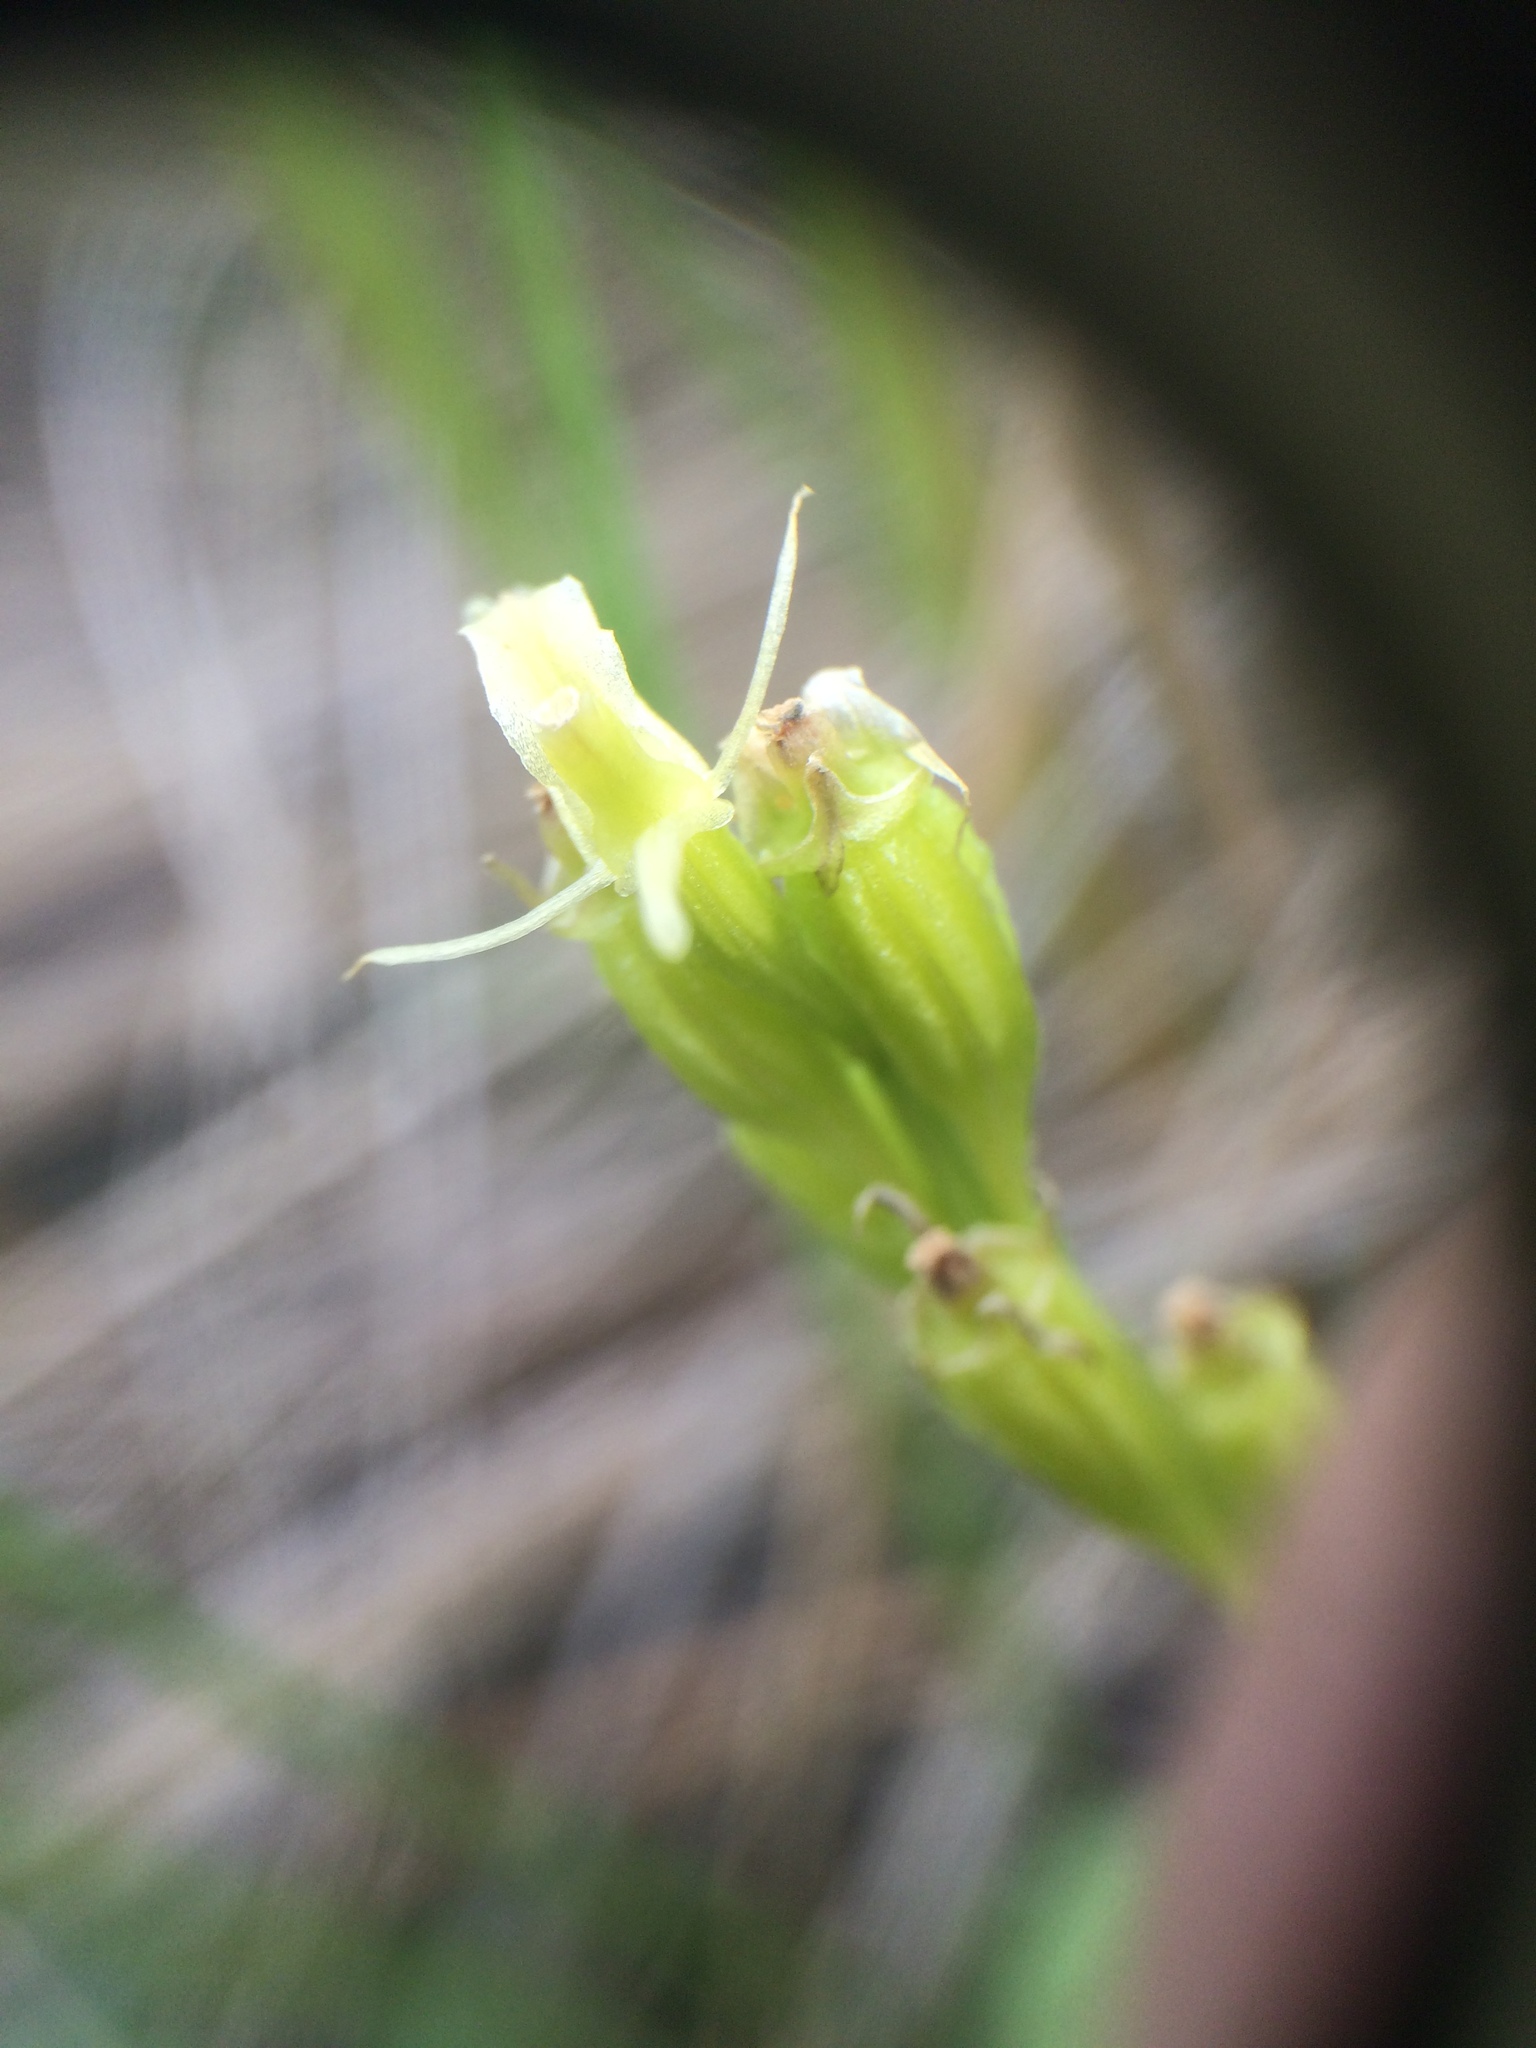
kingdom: Animalia
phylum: Arthropoda
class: Insecta
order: Coleoptera
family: Curculionidae
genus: Liparis
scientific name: Liparis loeselii
